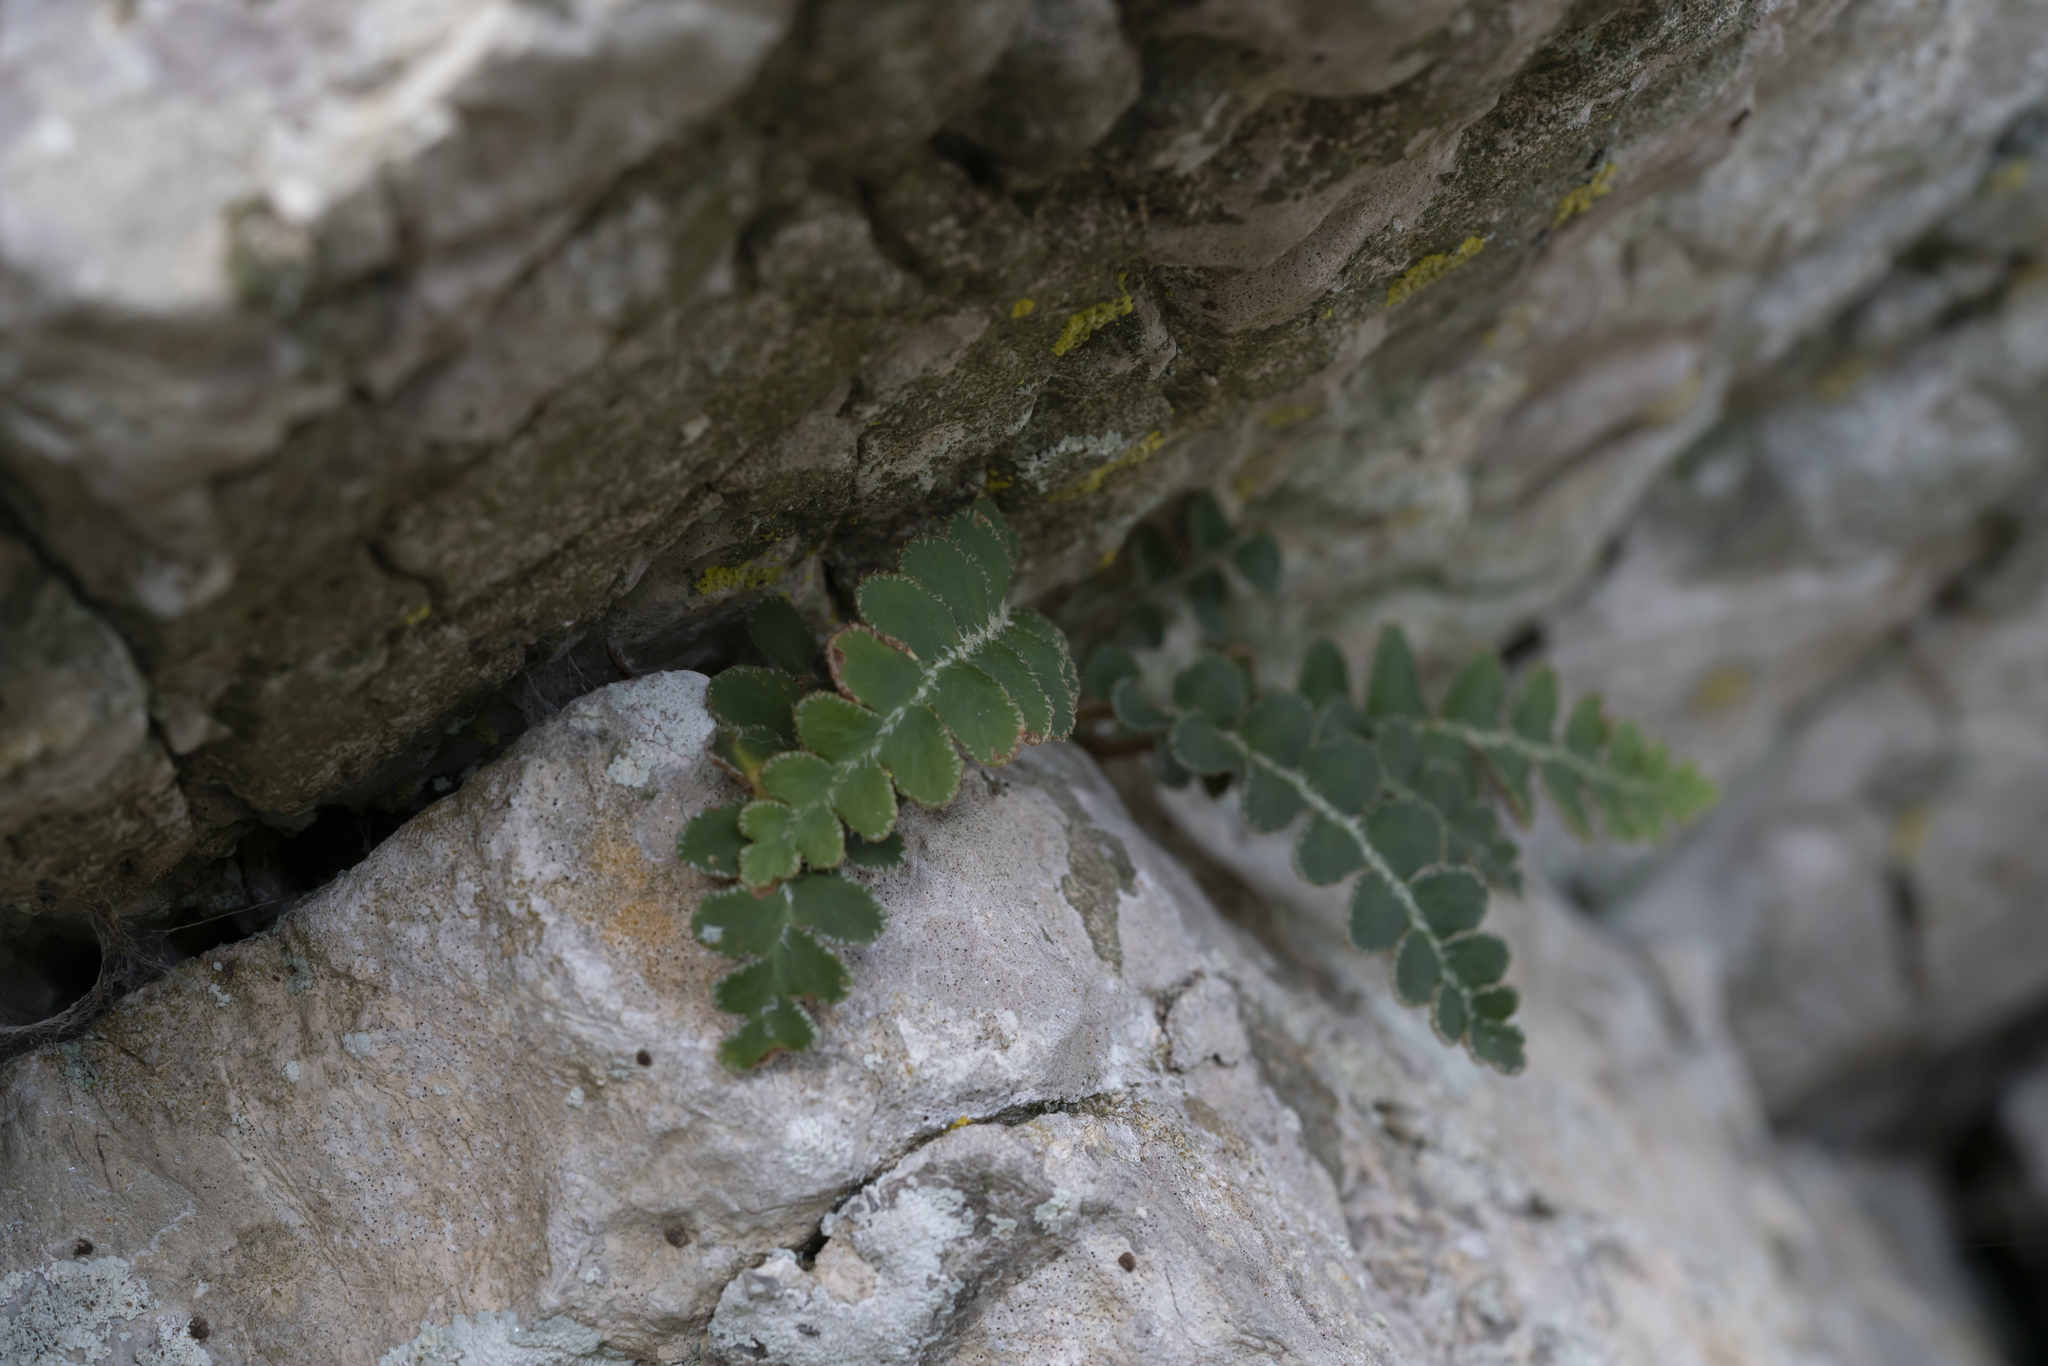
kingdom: Plantae
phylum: Tracheophyta
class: Polypodiopsida
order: Polypodiales
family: Aspleniaceae
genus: Asplenium
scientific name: Asplenium ceterach
